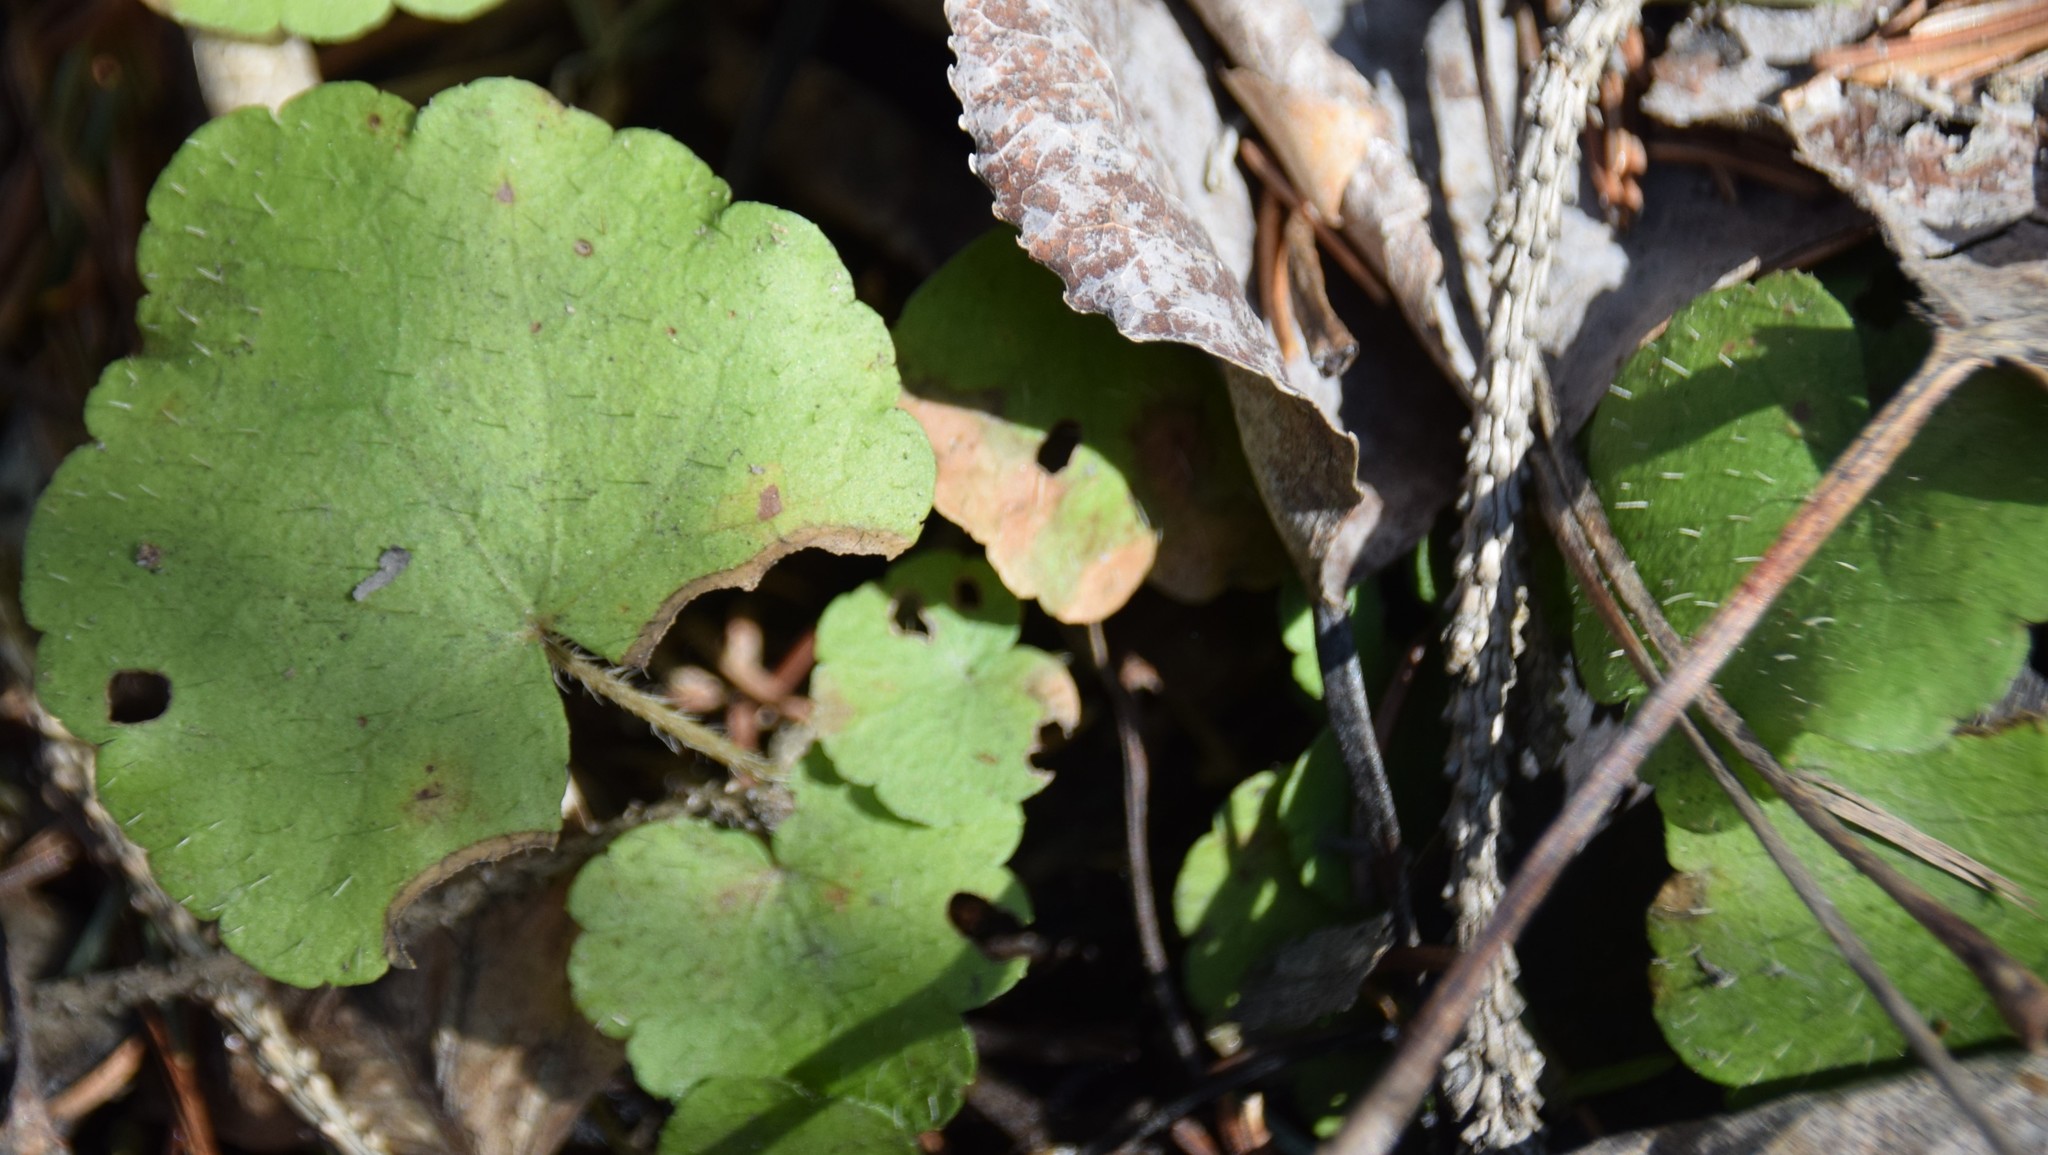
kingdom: Plantae
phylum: Tracheophyta
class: Magnoliopsida
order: Saxifragales
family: Saxifragaceae
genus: Mitella
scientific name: Mitella nuda
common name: Bare-stemmed bishop's-cap
